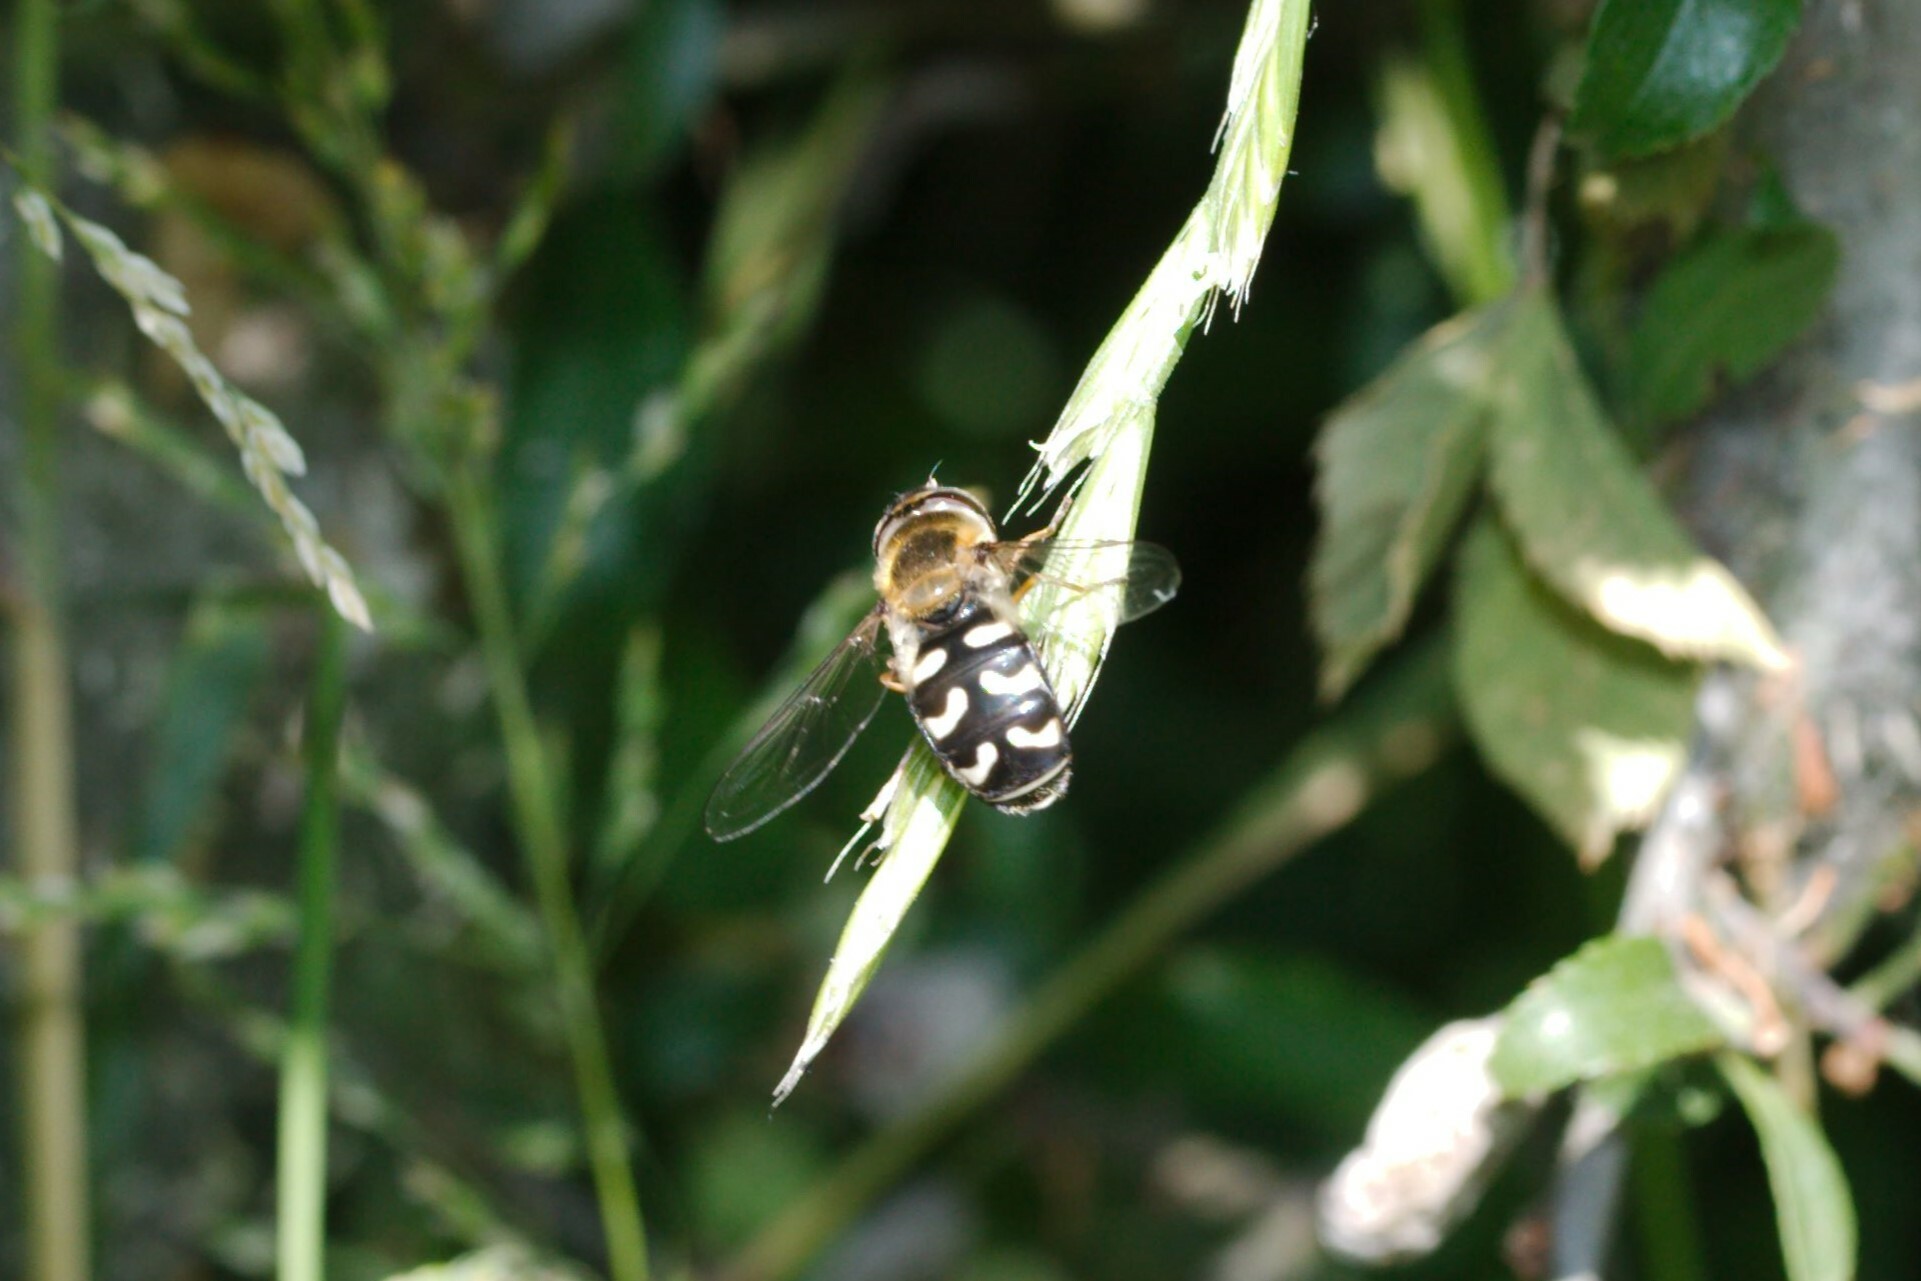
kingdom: Animalia
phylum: Arthropoda
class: Insecta
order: Diptera
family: Syrphidae
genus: Scaeva
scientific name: Scaeva pyrastri
